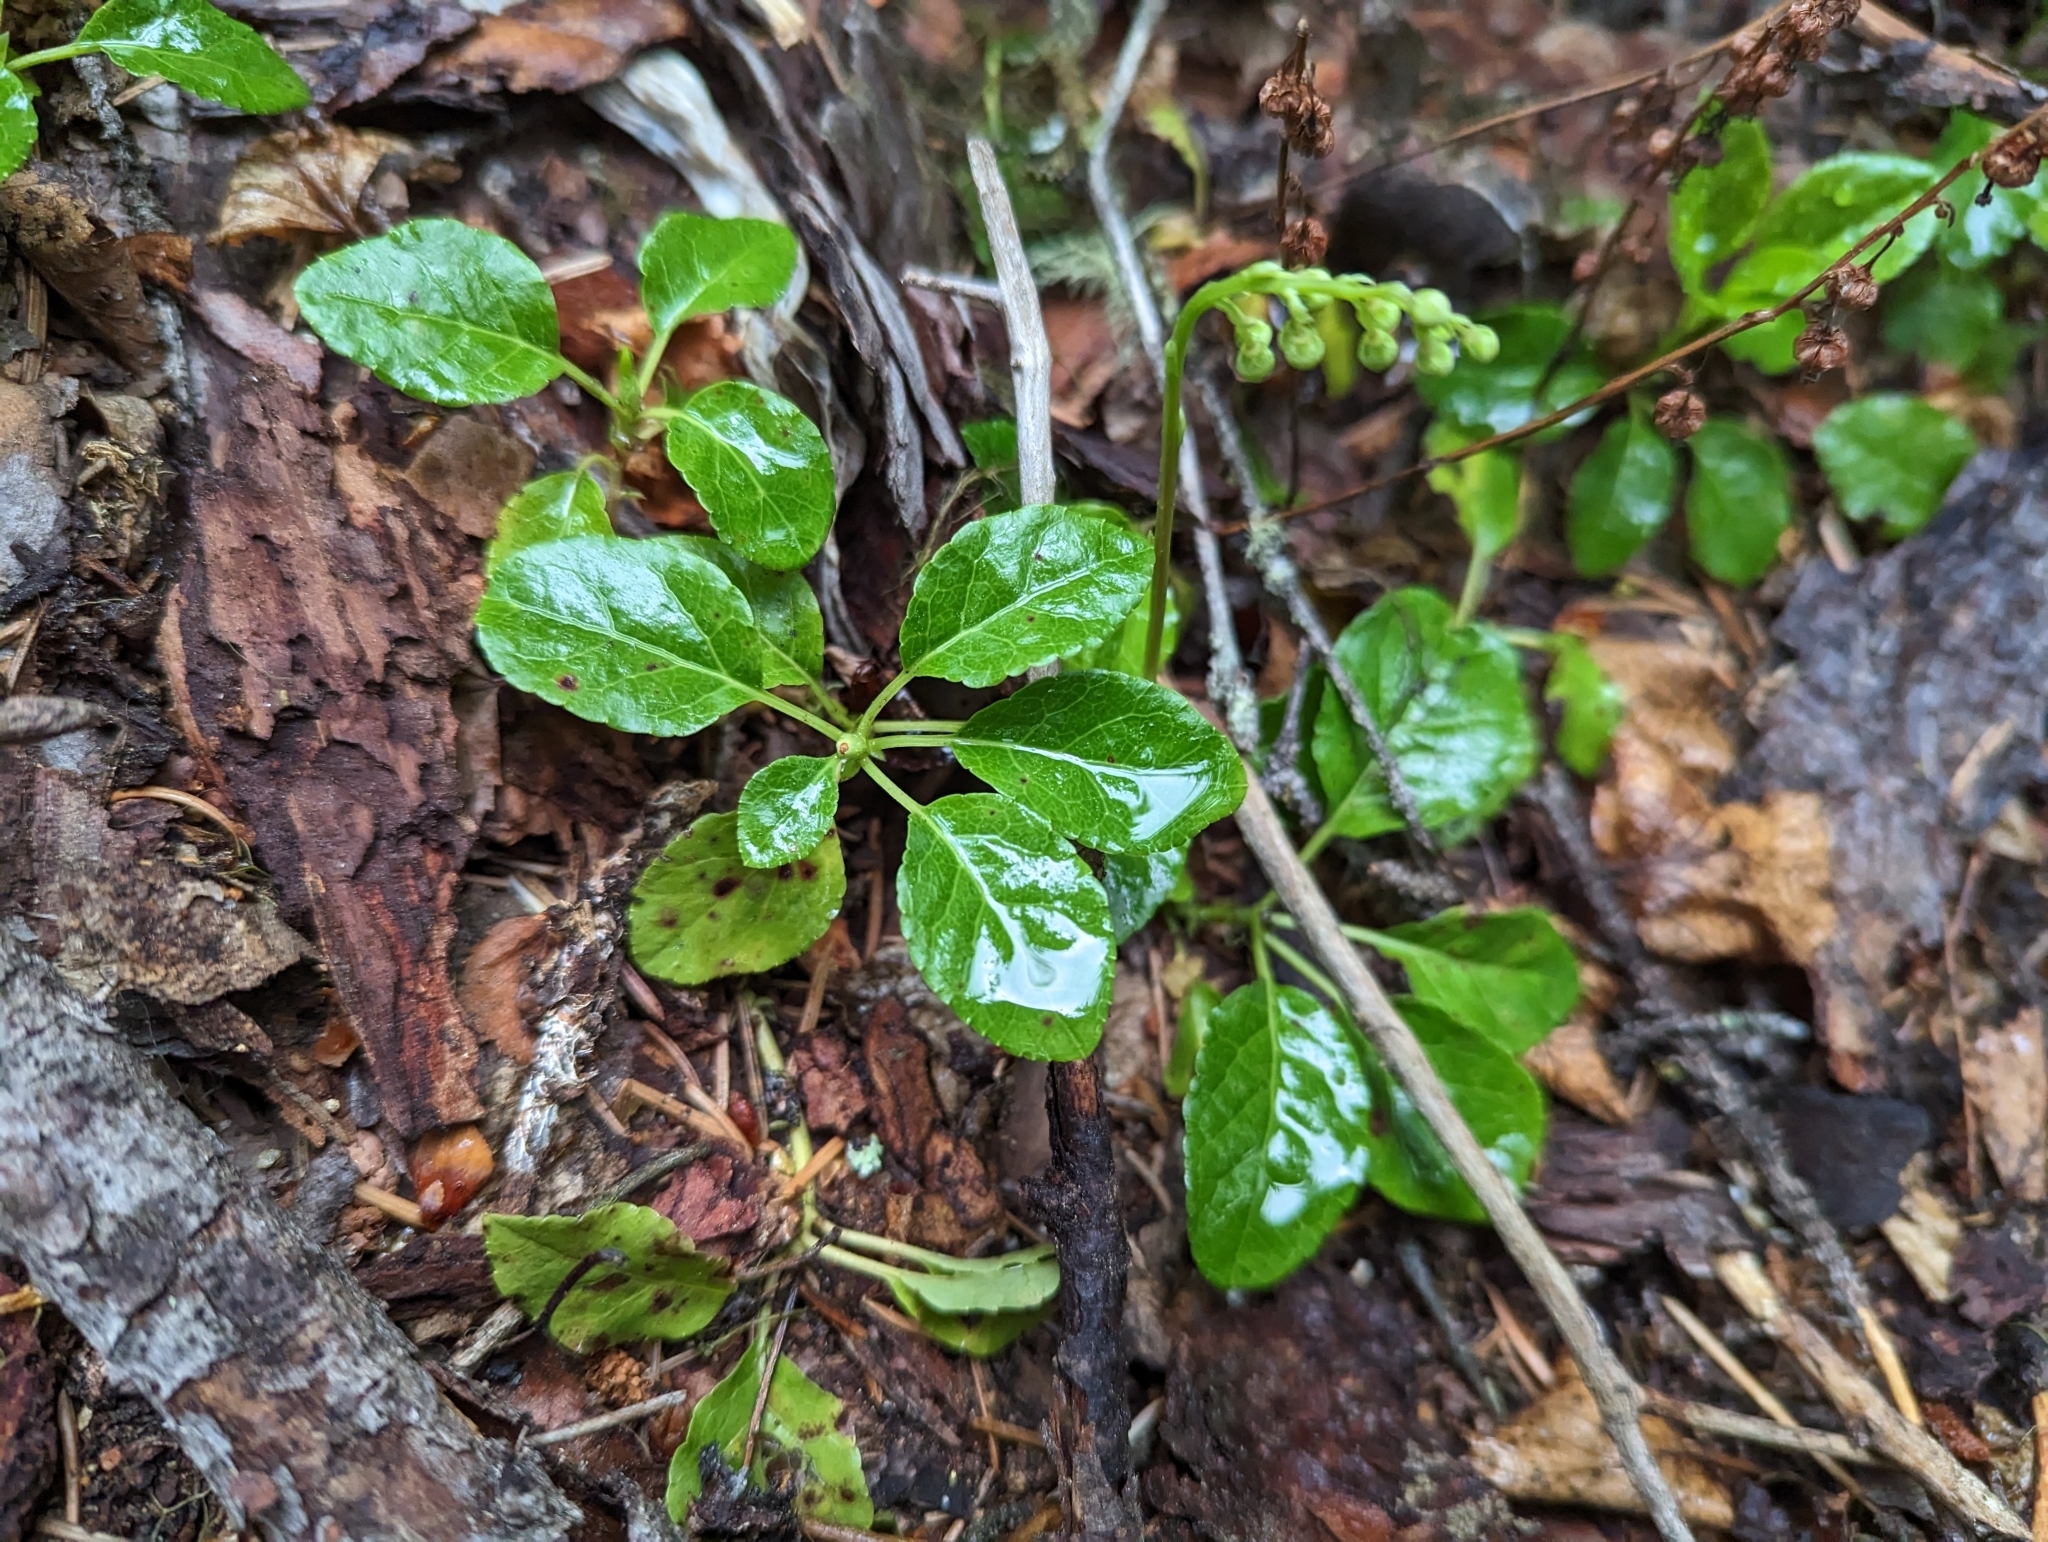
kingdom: Plantae
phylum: Tracheophyta
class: Magnoliopsida
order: Ericales
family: Ericaceae
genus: Orthilia
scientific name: Orthilia secunda
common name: One-sided orthilia
